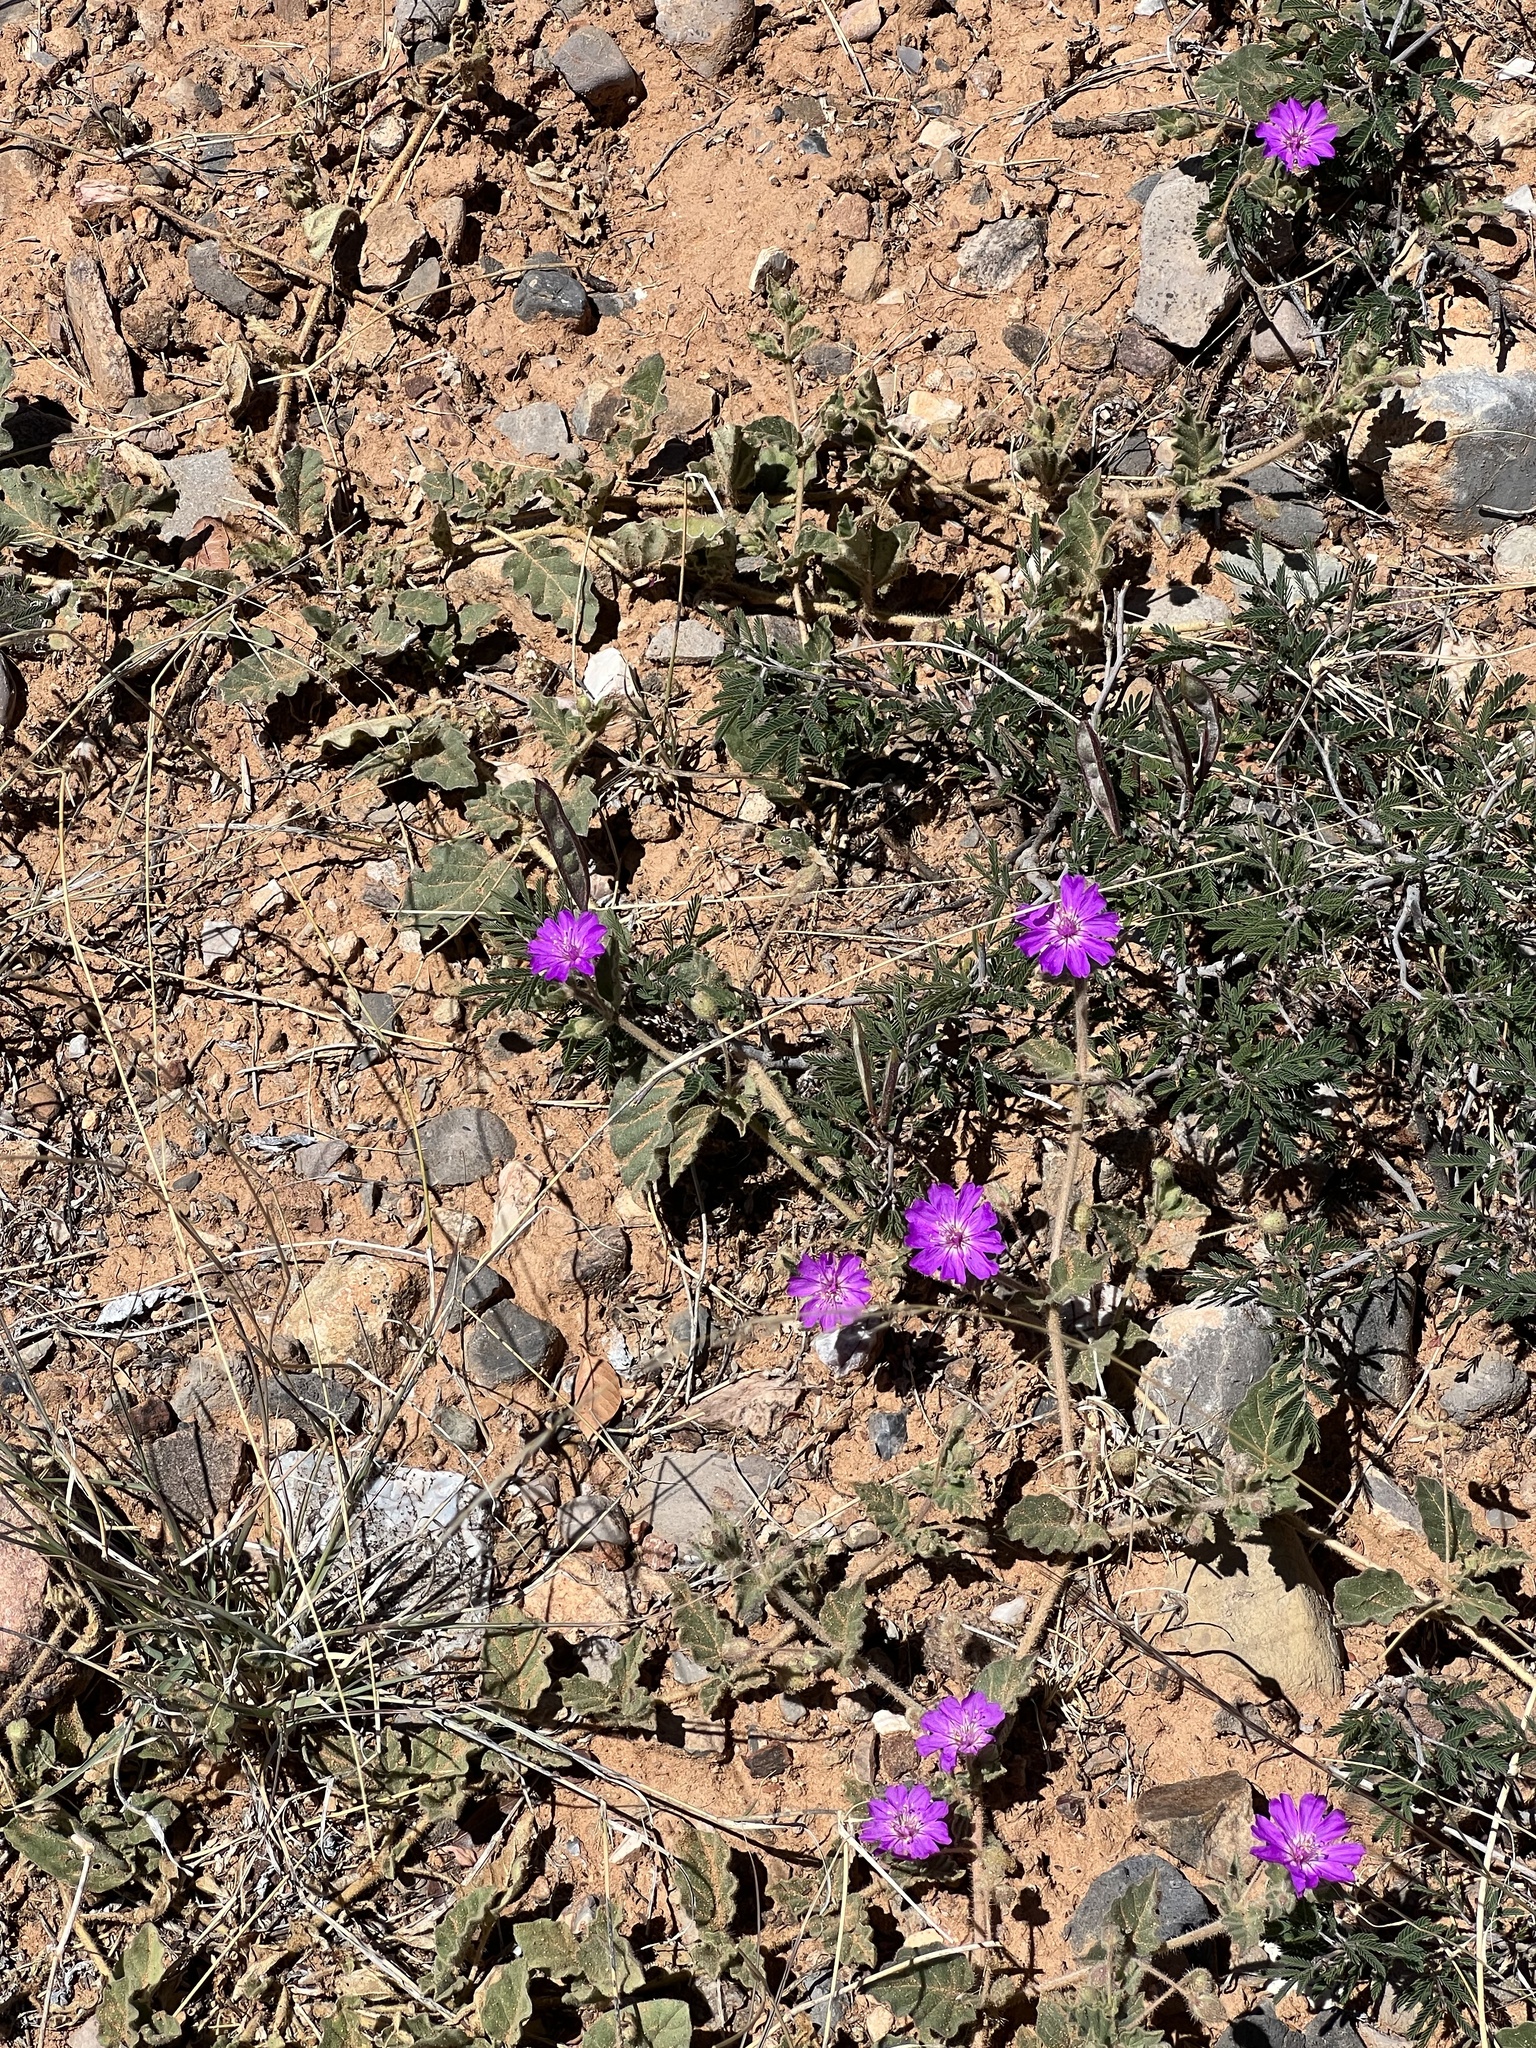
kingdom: Plantae
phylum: Tracheophyta
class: Magnoliopsida
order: Caryophyllales
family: Nyctaginaceae
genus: Allionia
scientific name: Allionia incarnata
